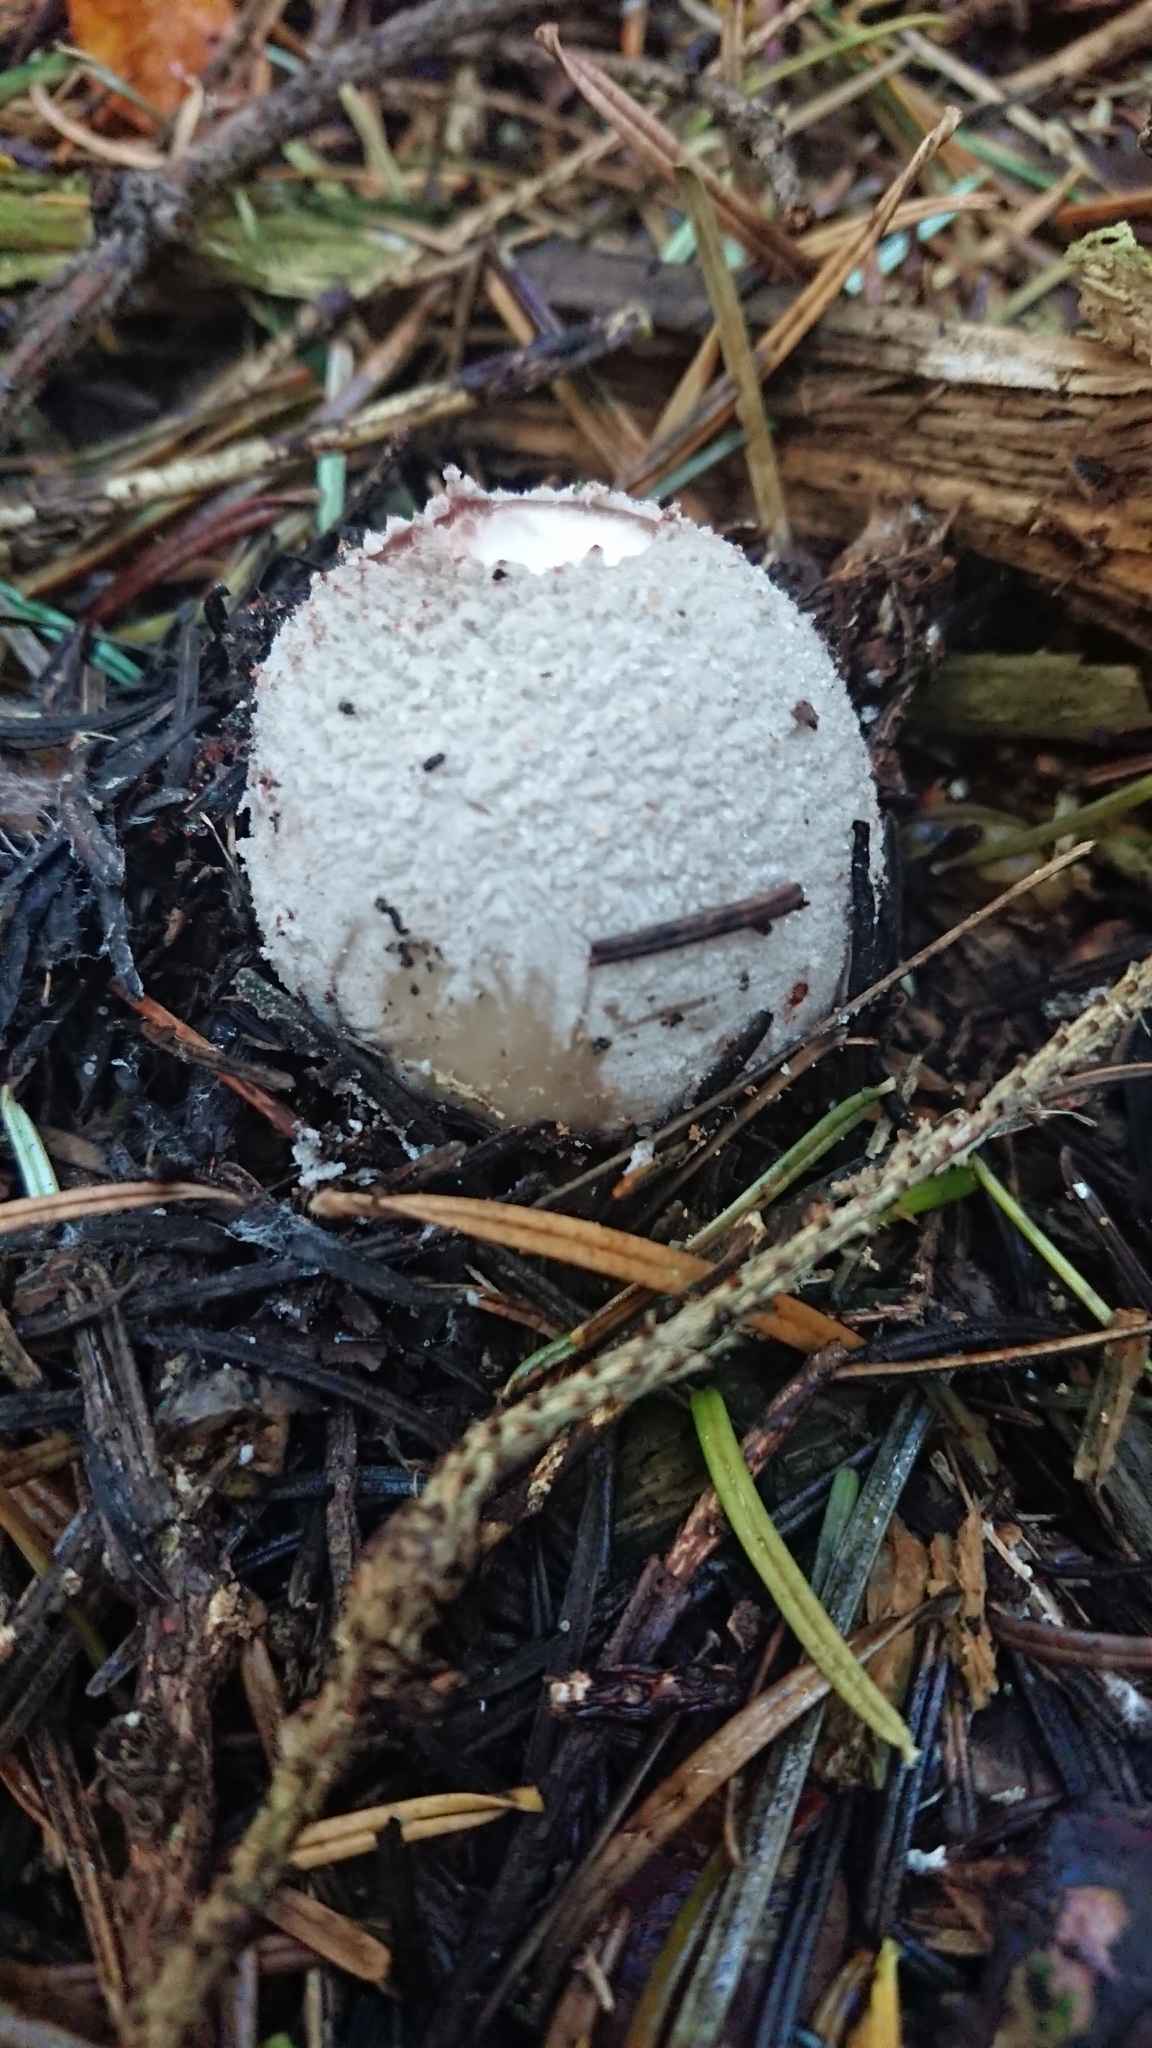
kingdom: Fungi
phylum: Basidiomycota
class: Agaricomycetes
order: Phallales
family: Phallaceae
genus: Phallus
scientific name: Phallus impudicus
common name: Common stinkhorn
